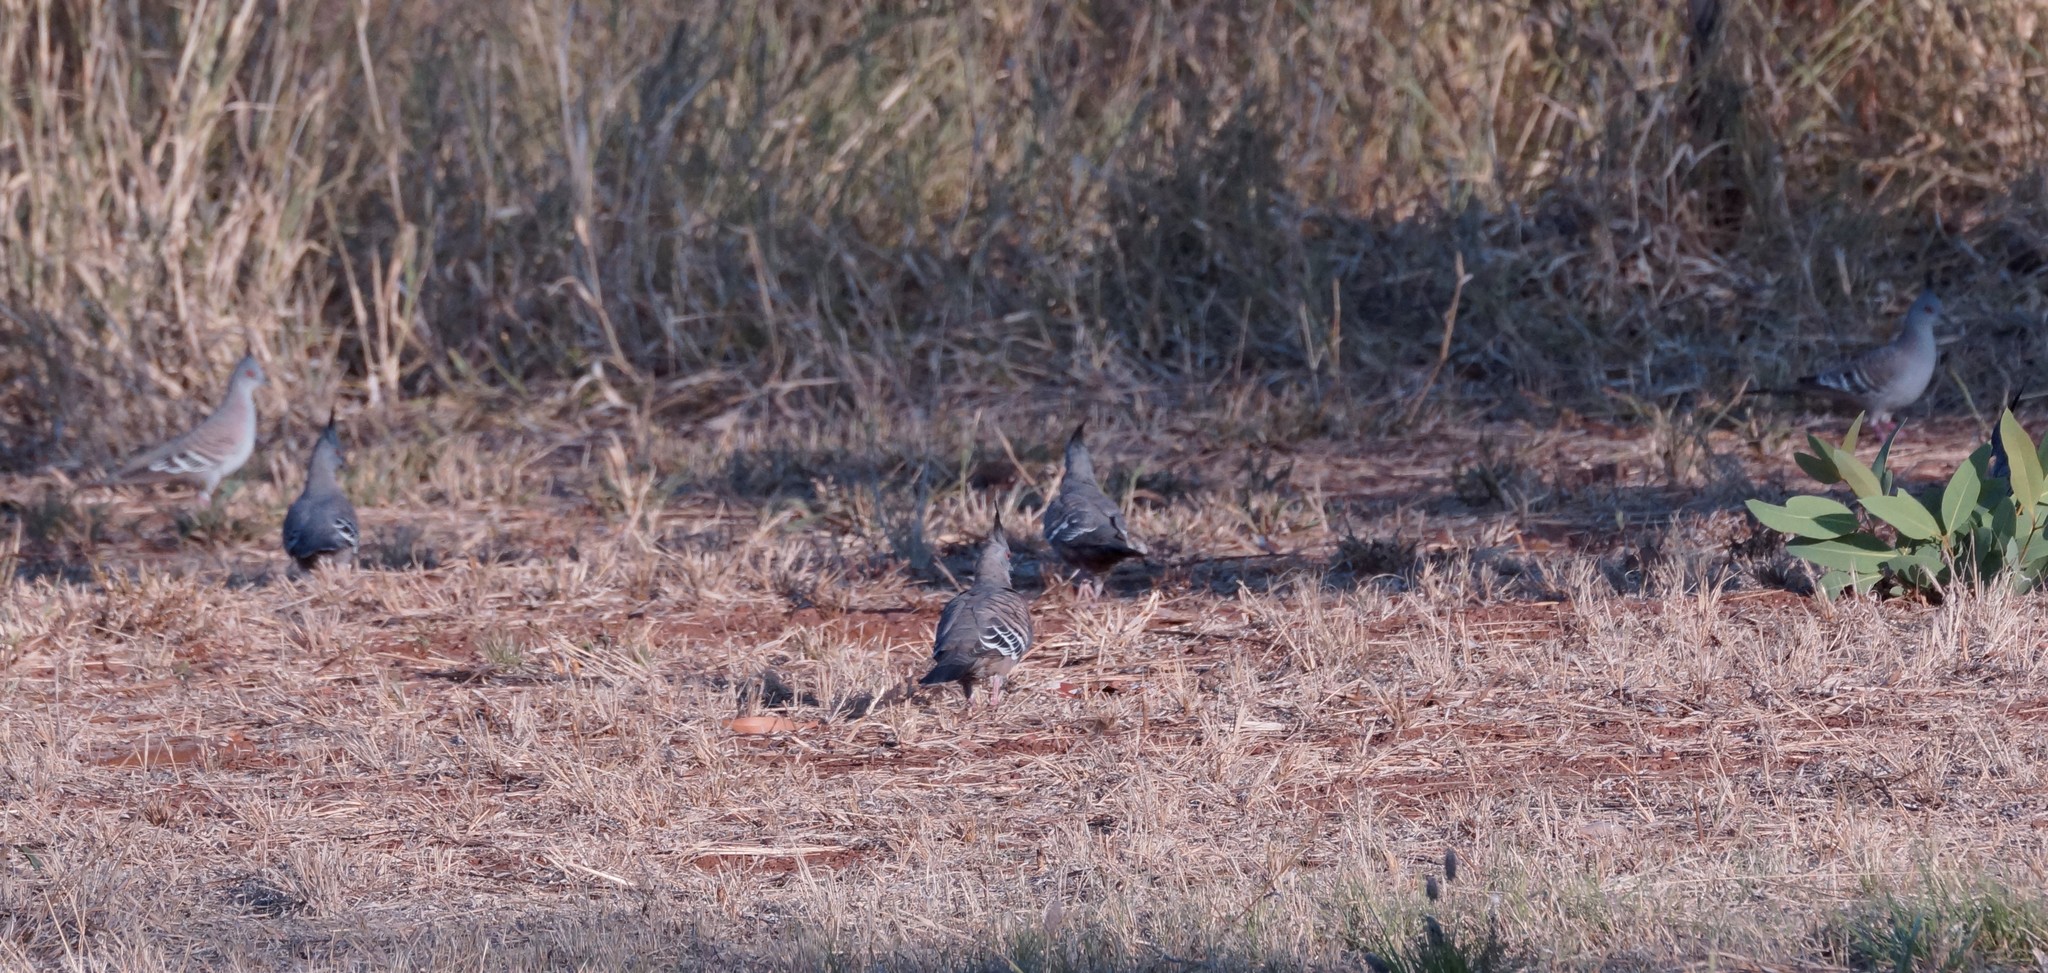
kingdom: Animalia
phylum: Chordata
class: Aves
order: Columbiformes
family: Columbidae
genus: Ocyphaps
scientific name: Ocyphaps lophotes
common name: Crested pigeon
